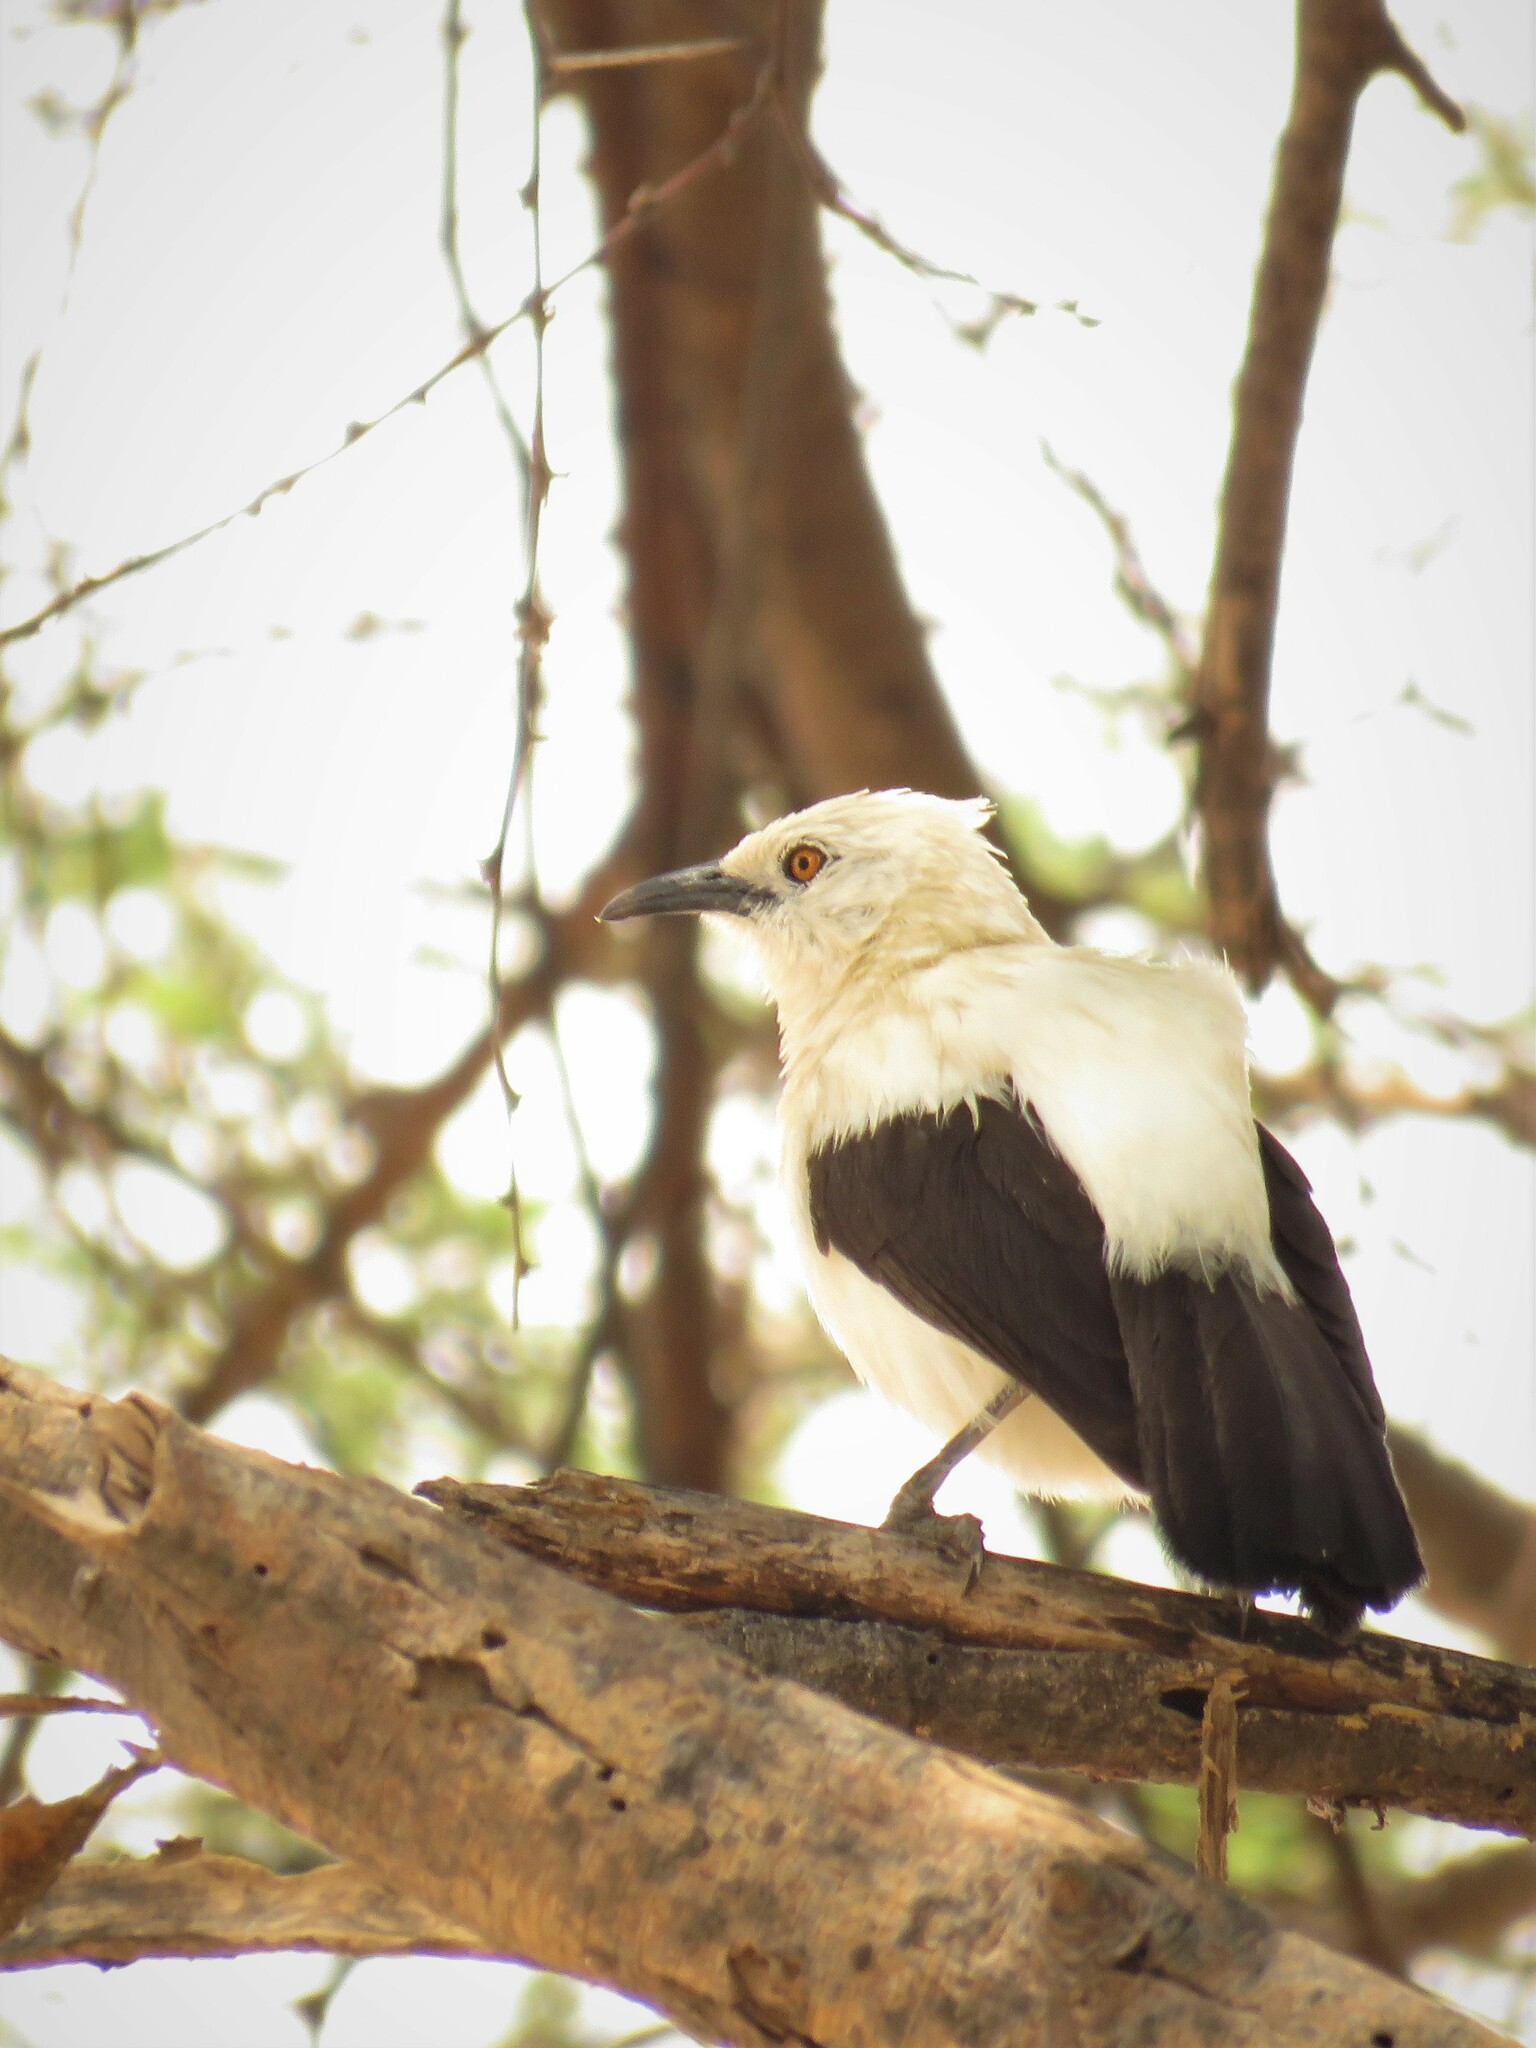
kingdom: Animalia
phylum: Chordata
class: Aves
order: Passeriformes
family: Leiothrichidae
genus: Turdoides
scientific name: Turdoides bicolor
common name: Southern pied babbler
